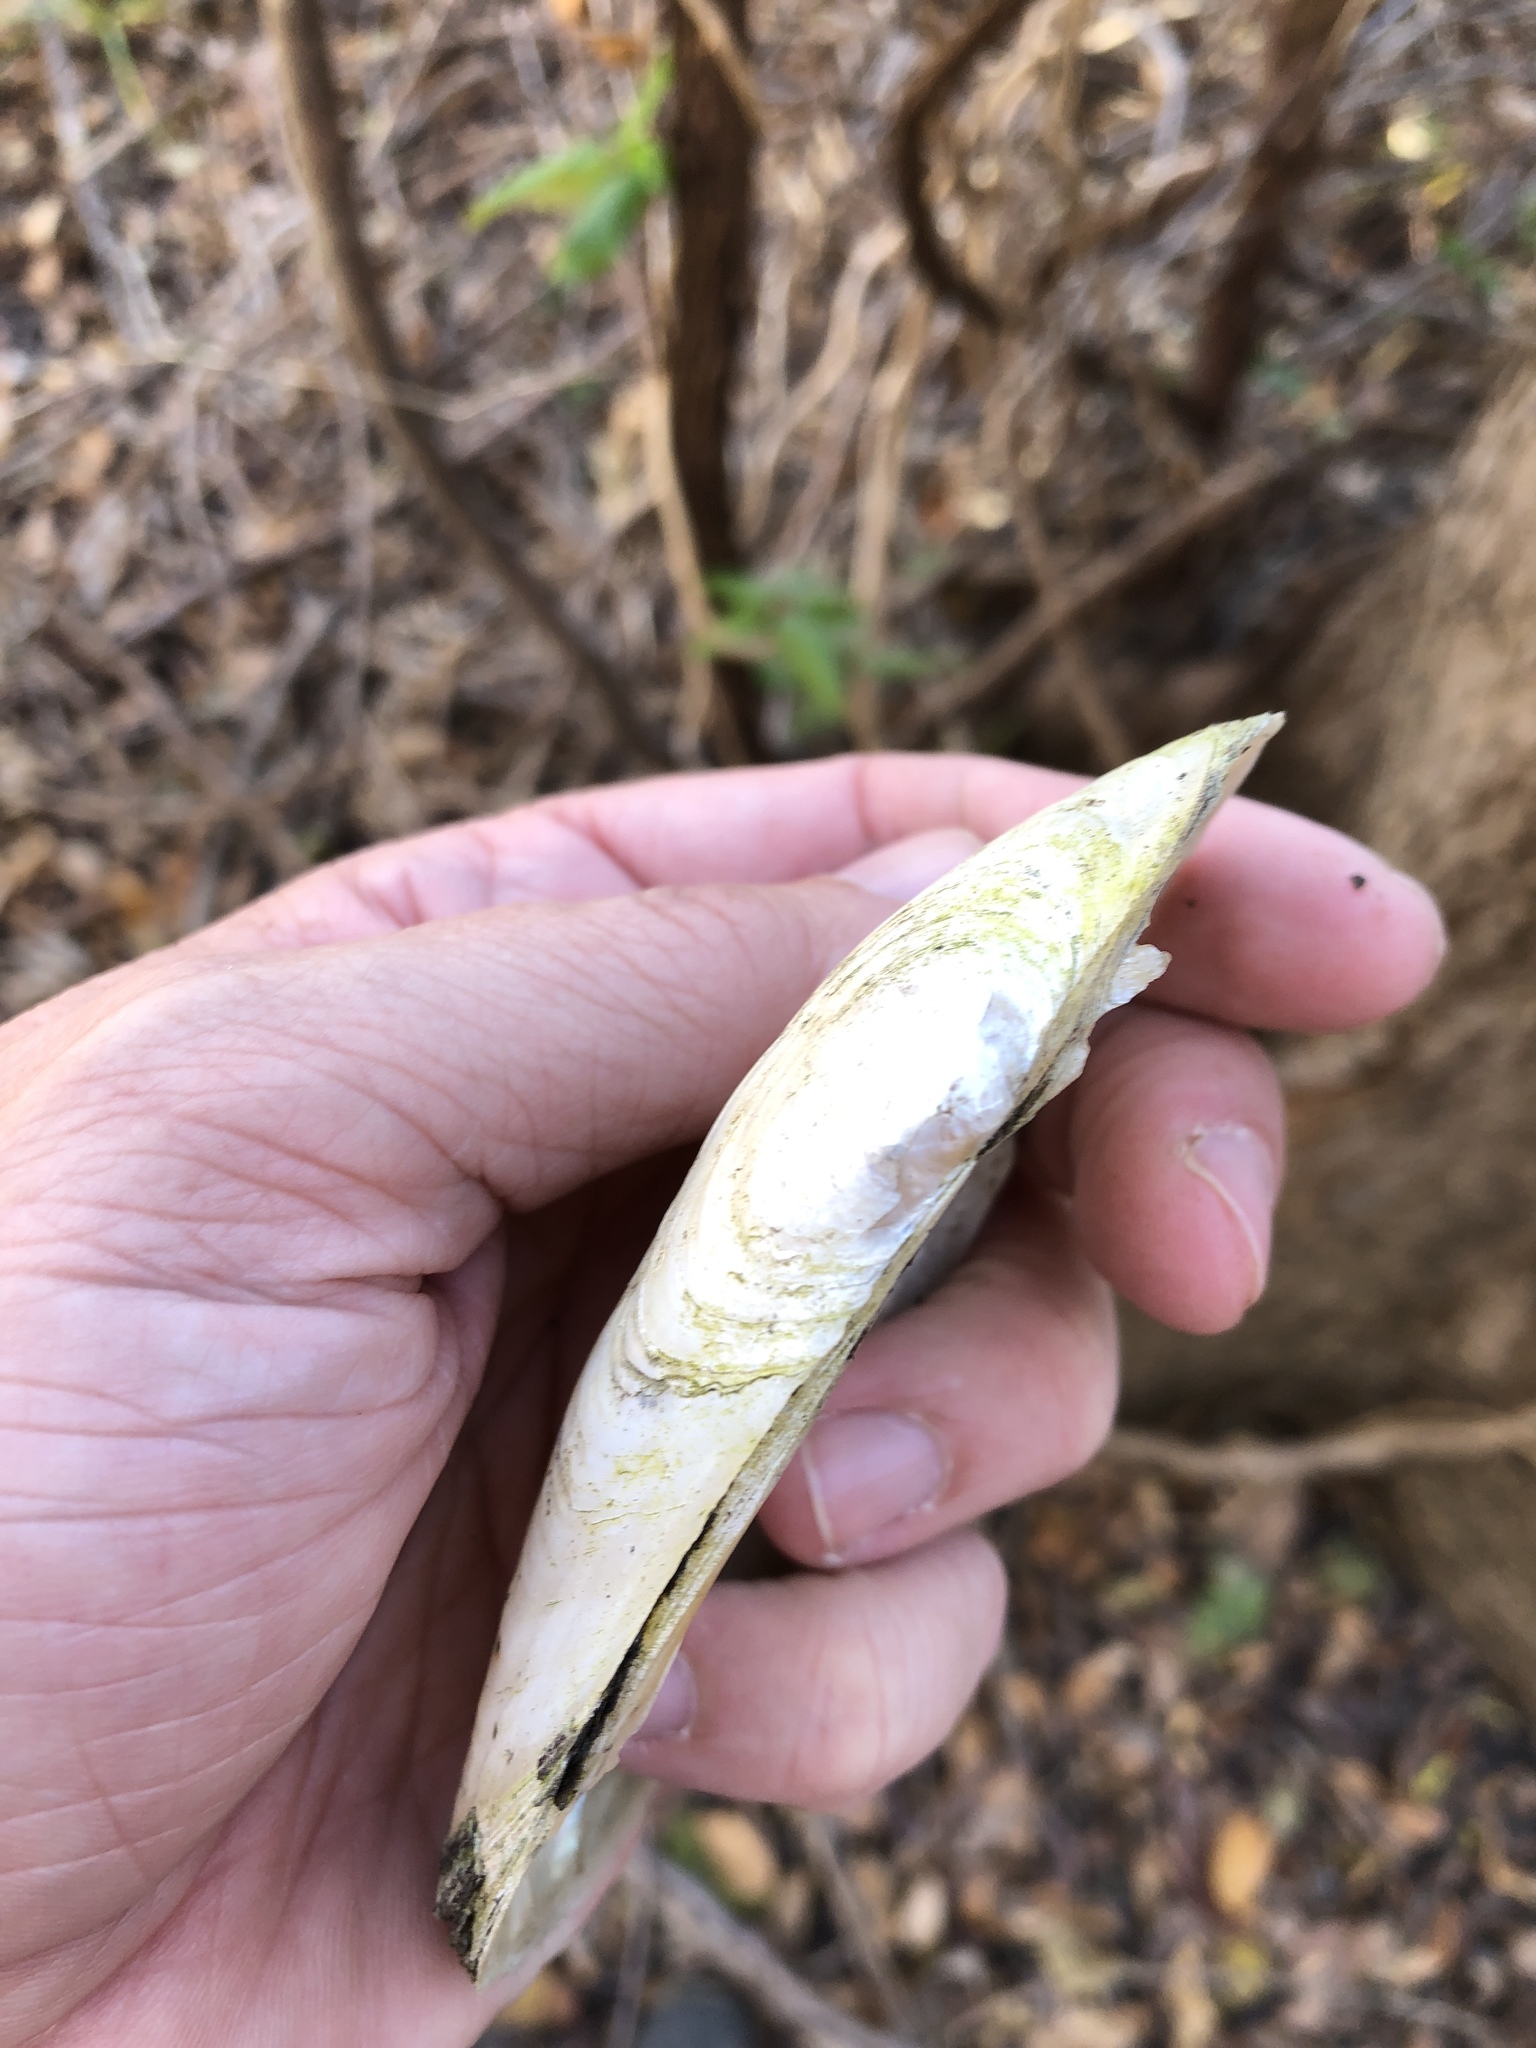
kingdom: Animalia
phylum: Mollusca
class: Bivalvia
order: Unionida
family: Unionidae
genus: Uniomerus
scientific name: Uniomerus declivis
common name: Tapered pondhorn
